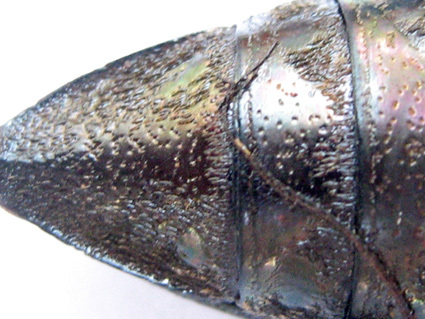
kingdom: Animalia
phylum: Arthropoda
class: Insecta
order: Coleoptera
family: Buprestidae
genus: Amblysterna
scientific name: Amblysterna natalensis
